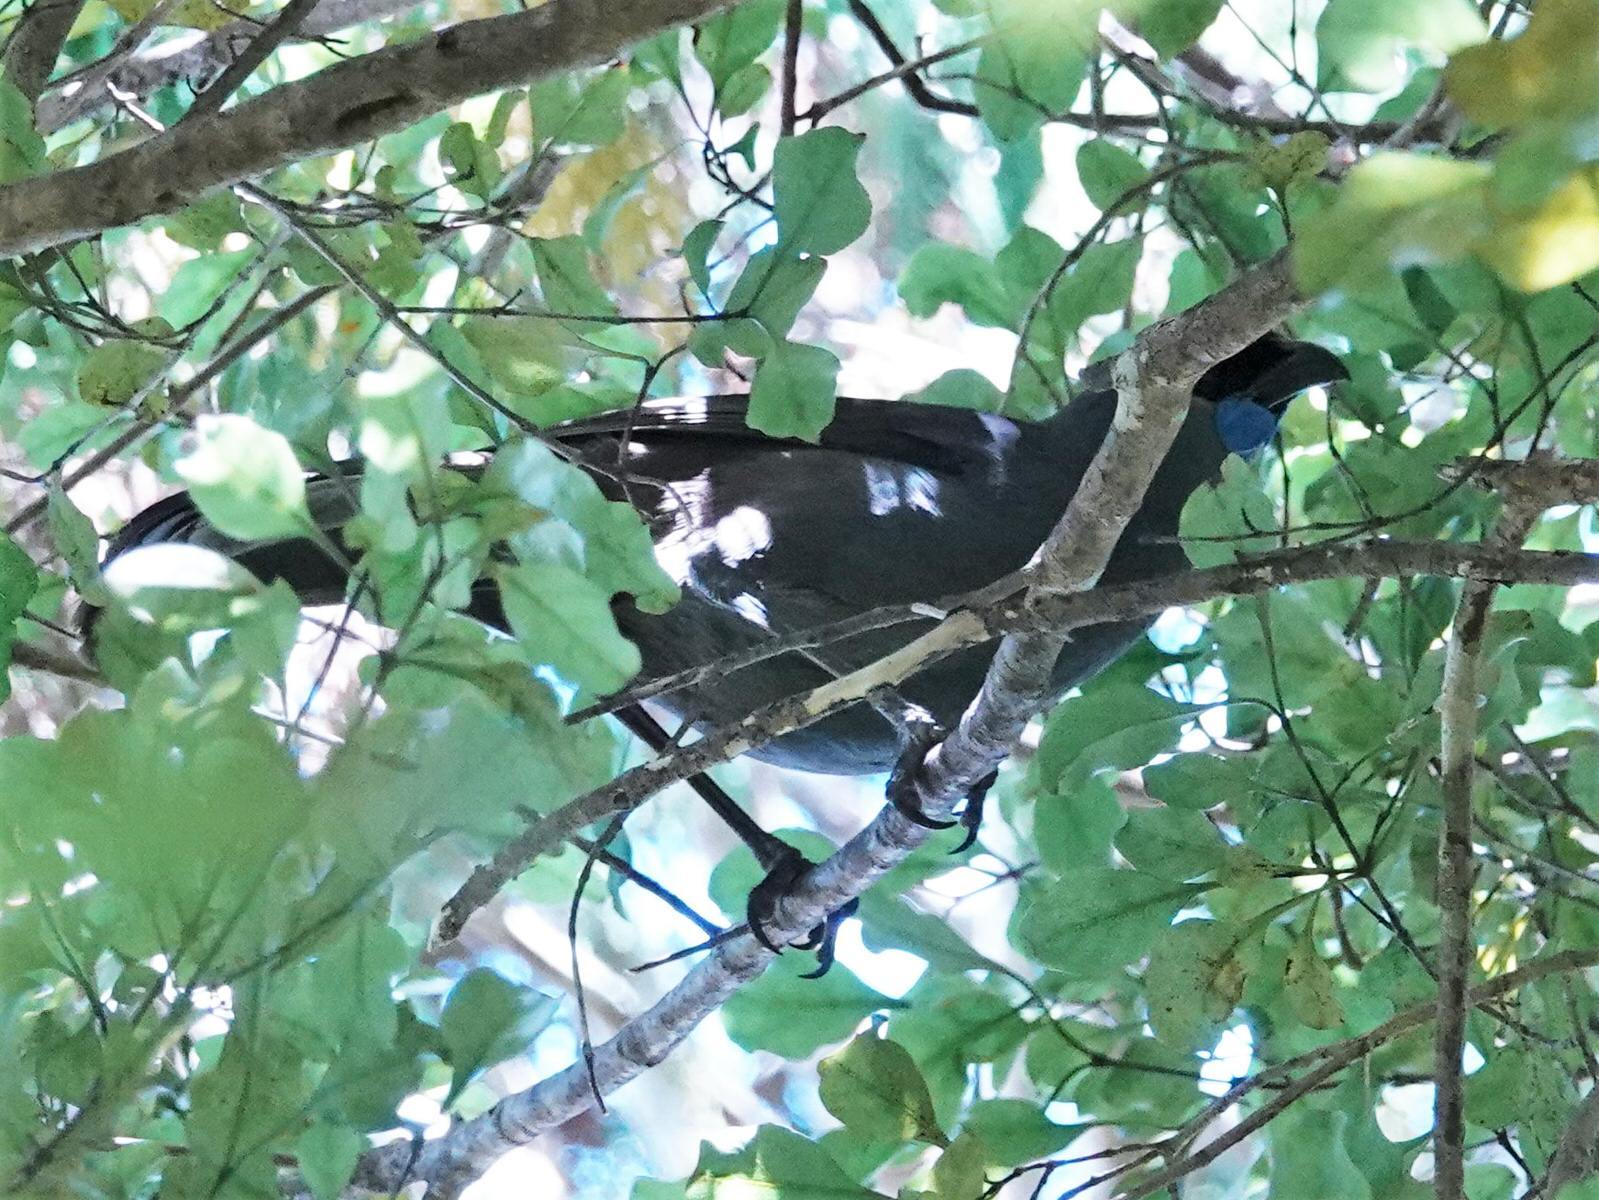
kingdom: Animalia
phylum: Chordata
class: Aves
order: Passeriformes
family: Callaeatidae
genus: Callaeas
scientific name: Callaeas cinereus
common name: South island kokako
